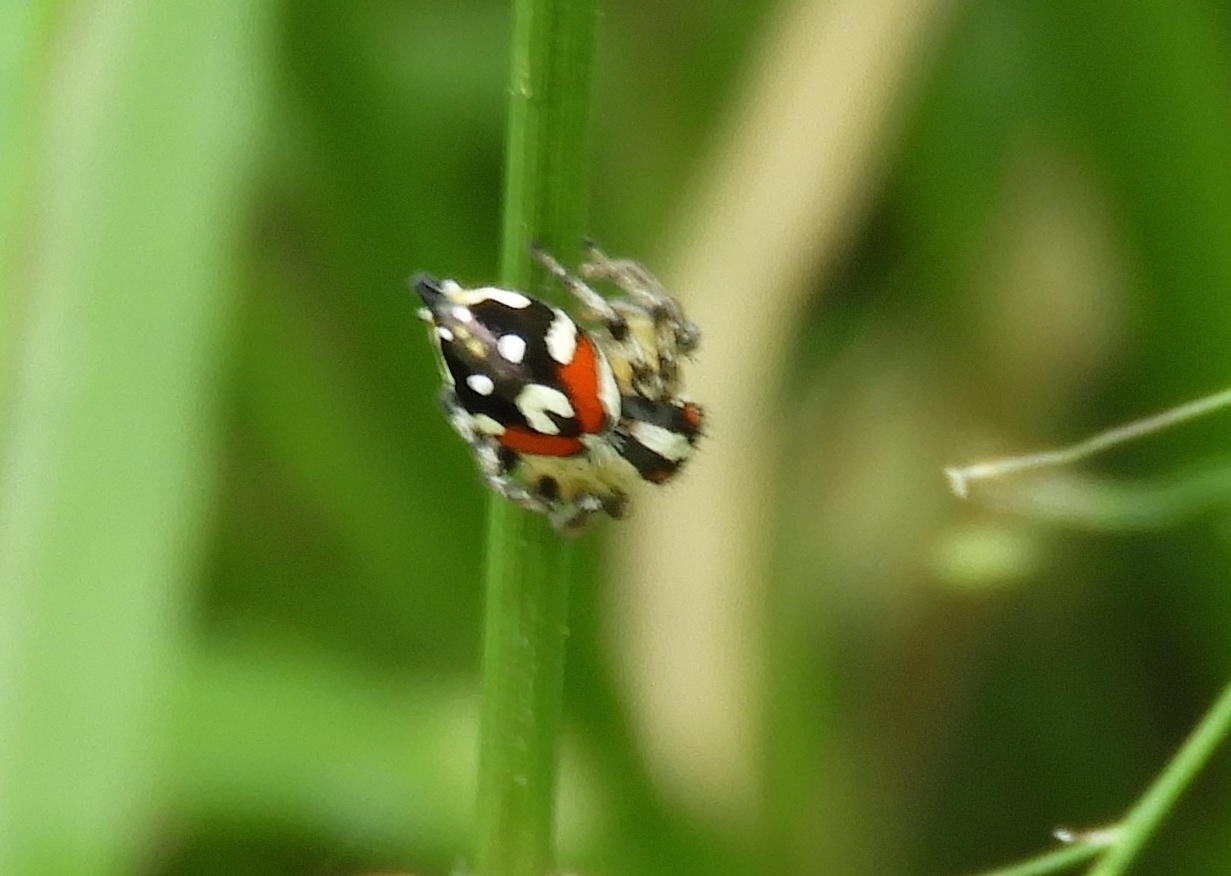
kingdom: Animalia
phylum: Arthropoda
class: Arachnida
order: Araneae
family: Salticidae
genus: Nycerella
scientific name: Nycerella delecta
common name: Jumping spiders
